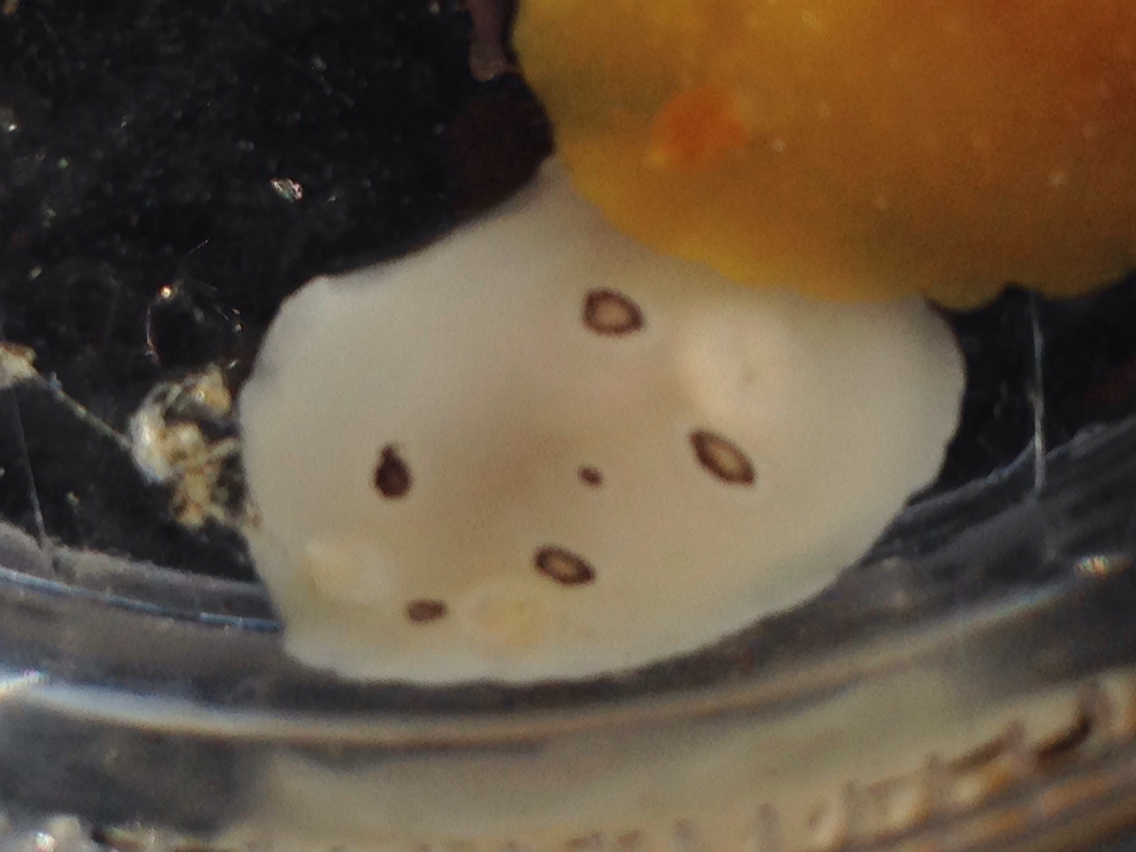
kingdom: Animalia
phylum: Mollusca
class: Gastropoda
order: Nudibranchia
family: Discodorididae
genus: Diaulula
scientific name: Diaulula sandiegensis
